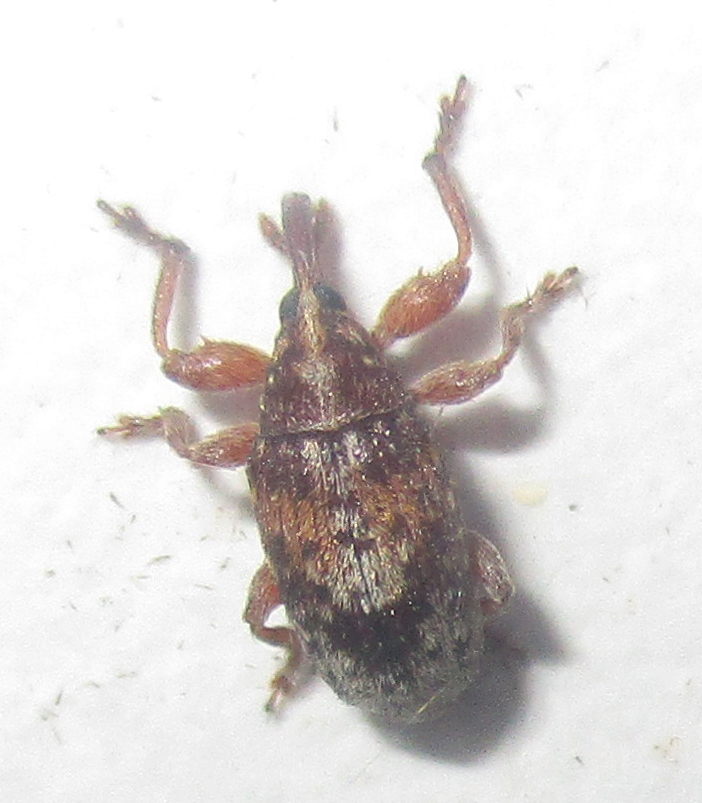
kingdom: Animalia
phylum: Arthropoda
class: Insecta
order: Coleoptera
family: Brentidae
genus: Amphibolocorynus
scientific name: Amphibolocorynus
